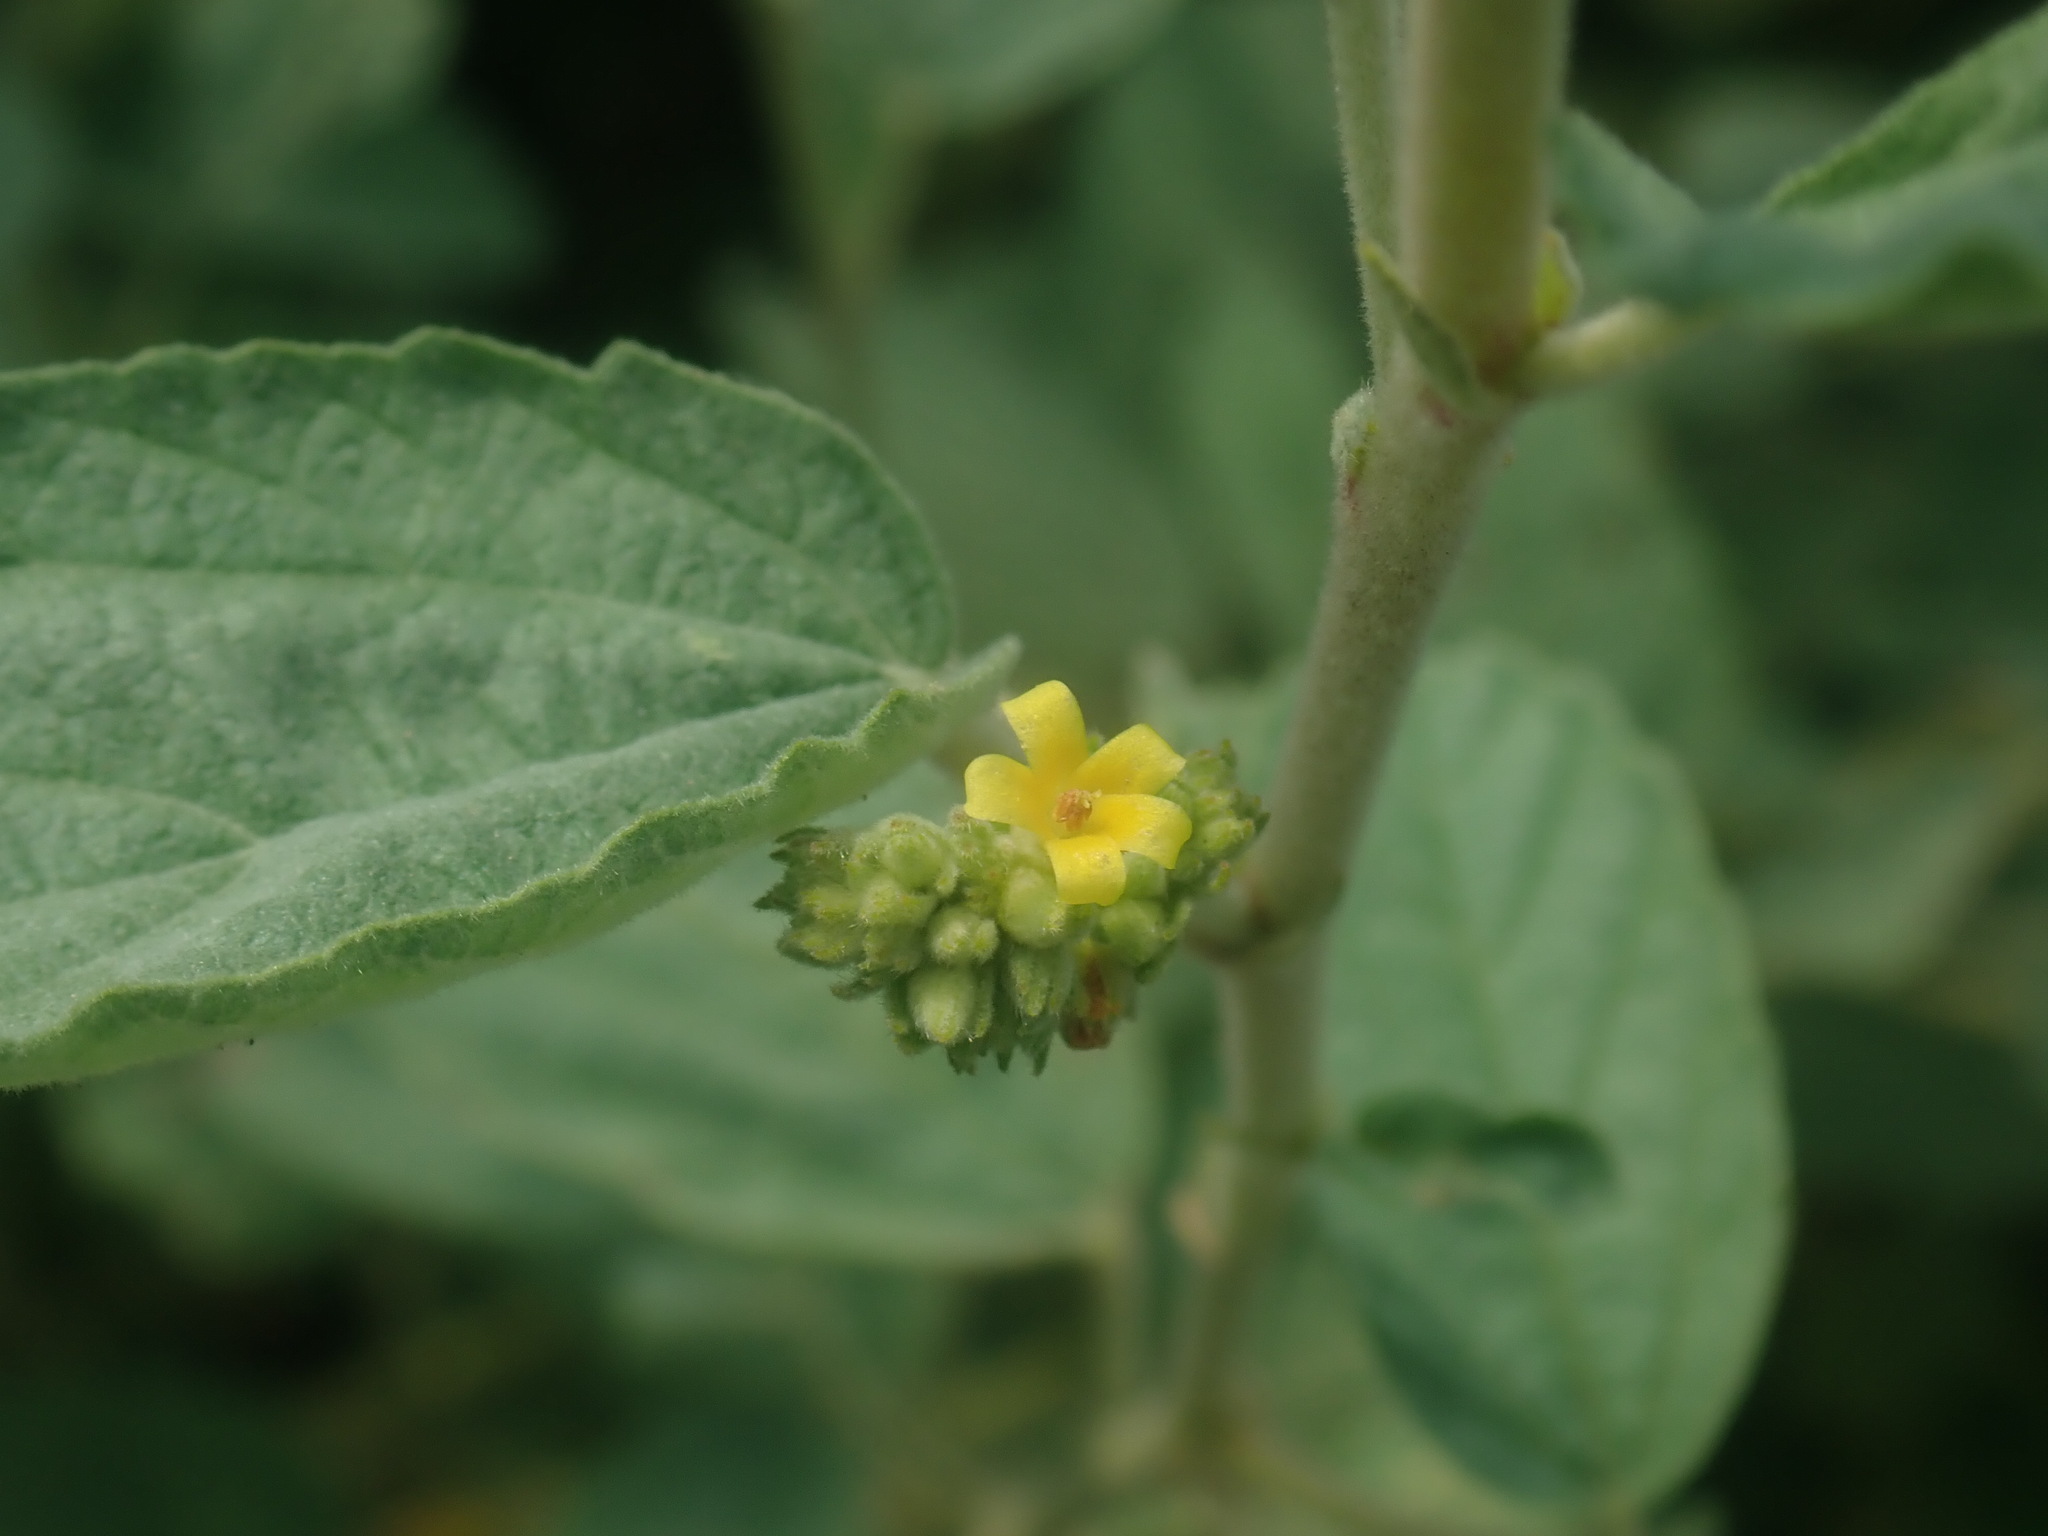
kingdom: Plantae
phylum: Tracheophyta
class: Magnoliopsida
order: Malvales
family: Malvaceae
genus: Waltheria
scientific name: Waltheria indica
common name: Leather-coat
